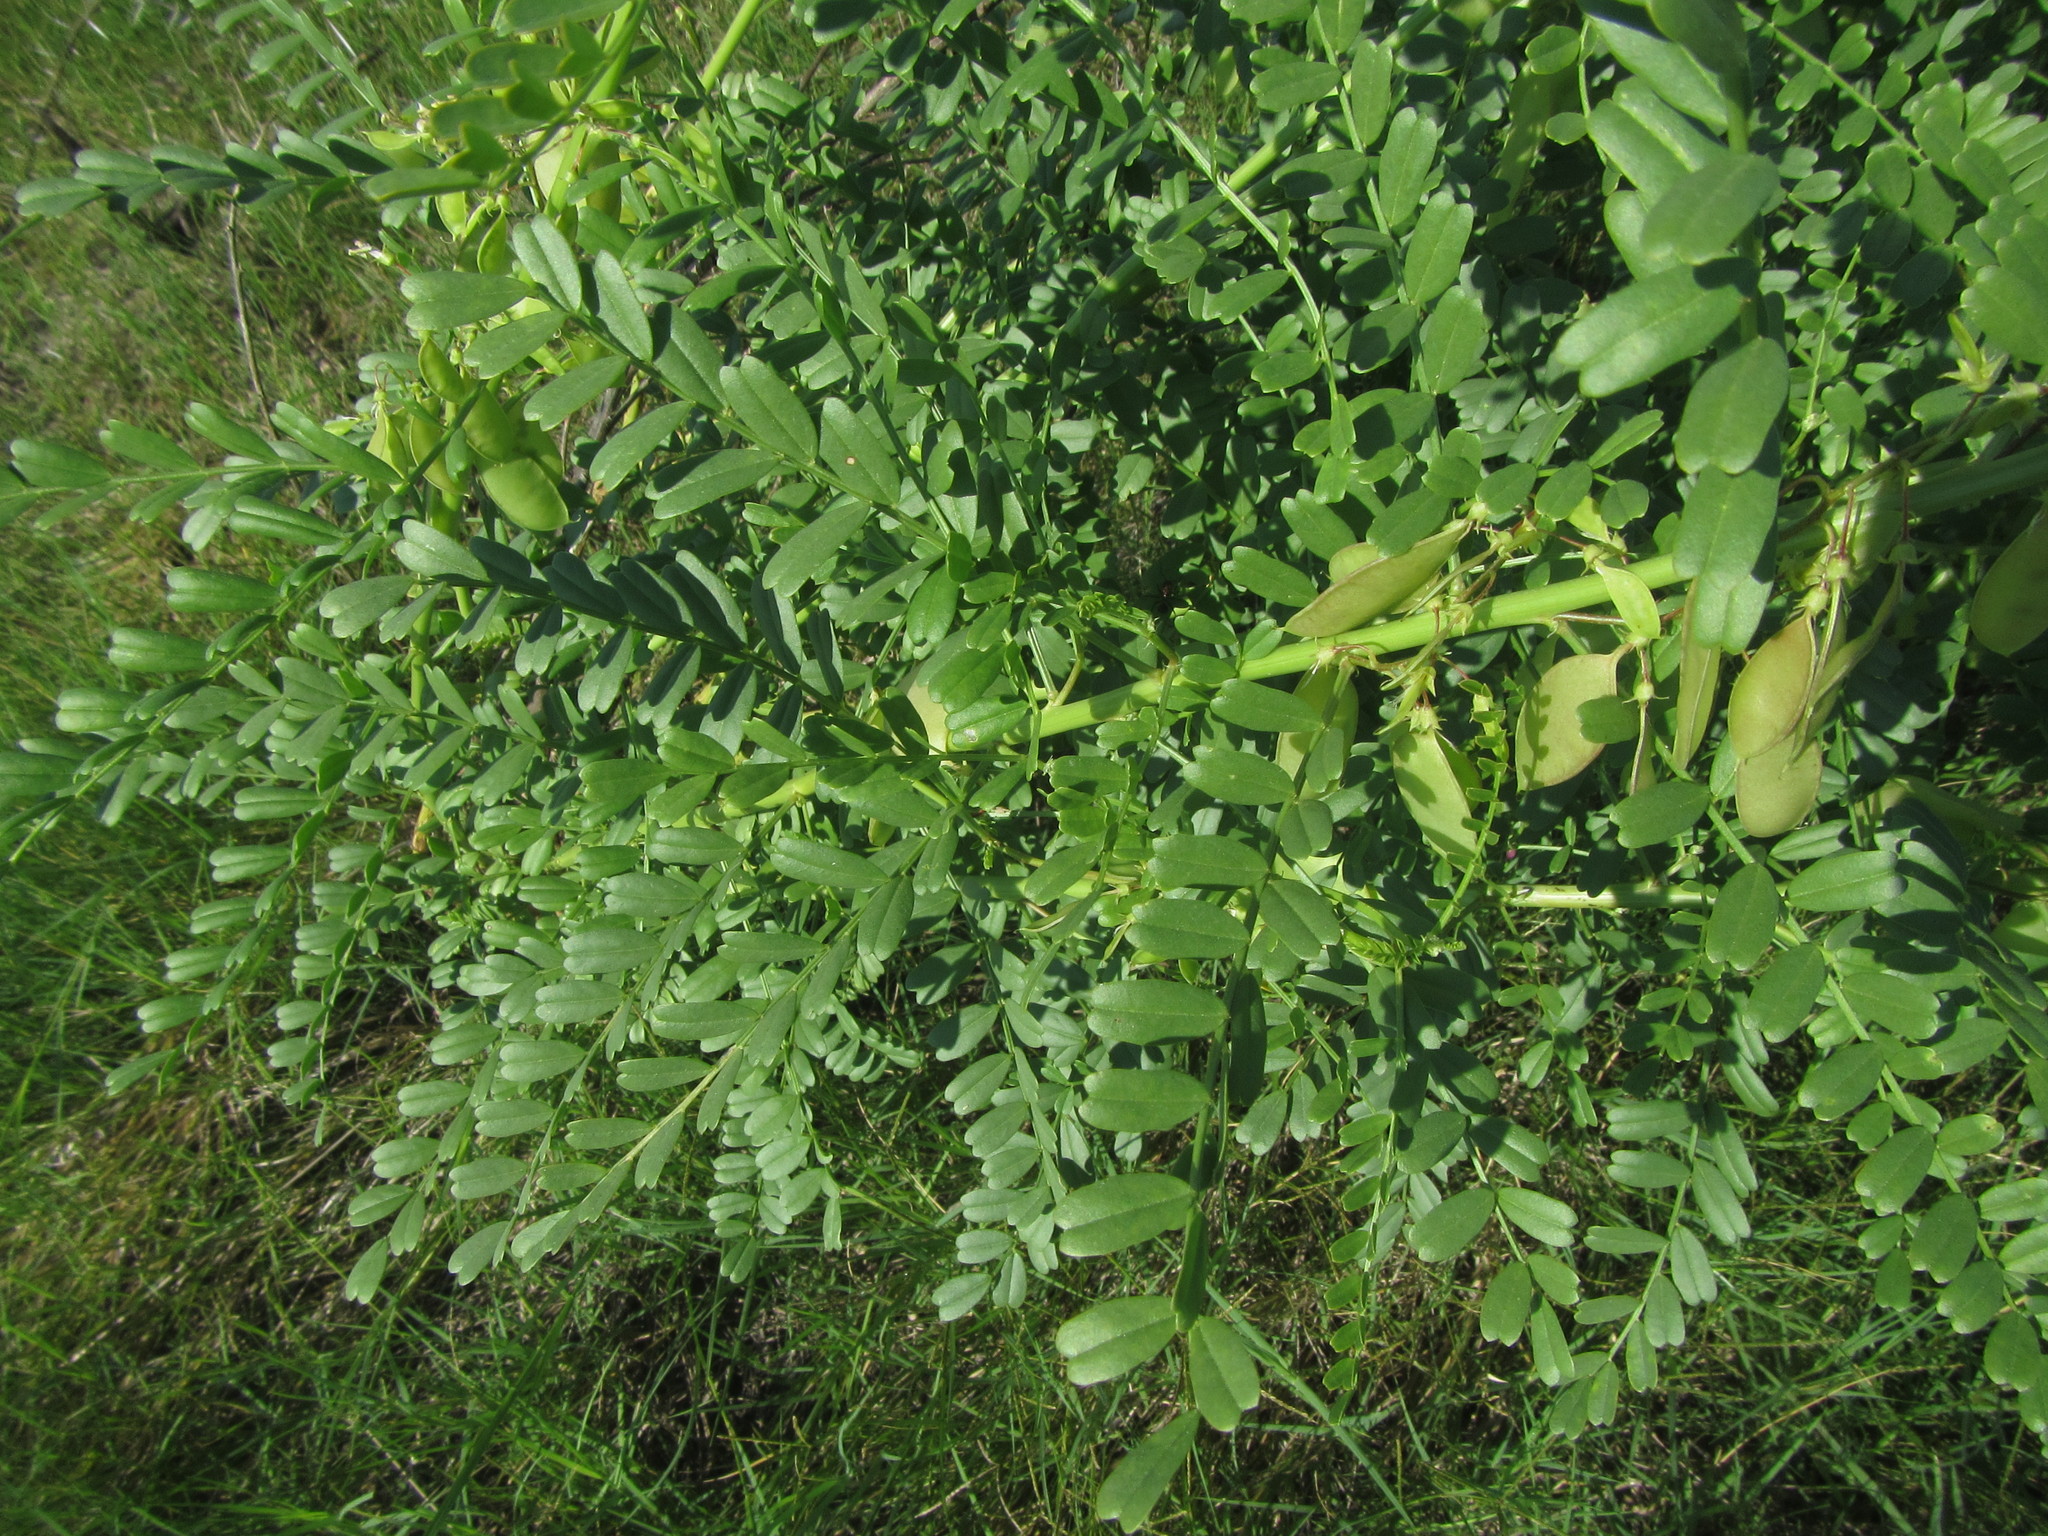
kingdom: Plantae
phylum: Tracheophyta
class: Magnoliopsida
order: Fabales
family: Fabaceae
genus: Lessertia
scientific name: Lessertia benguellensis
